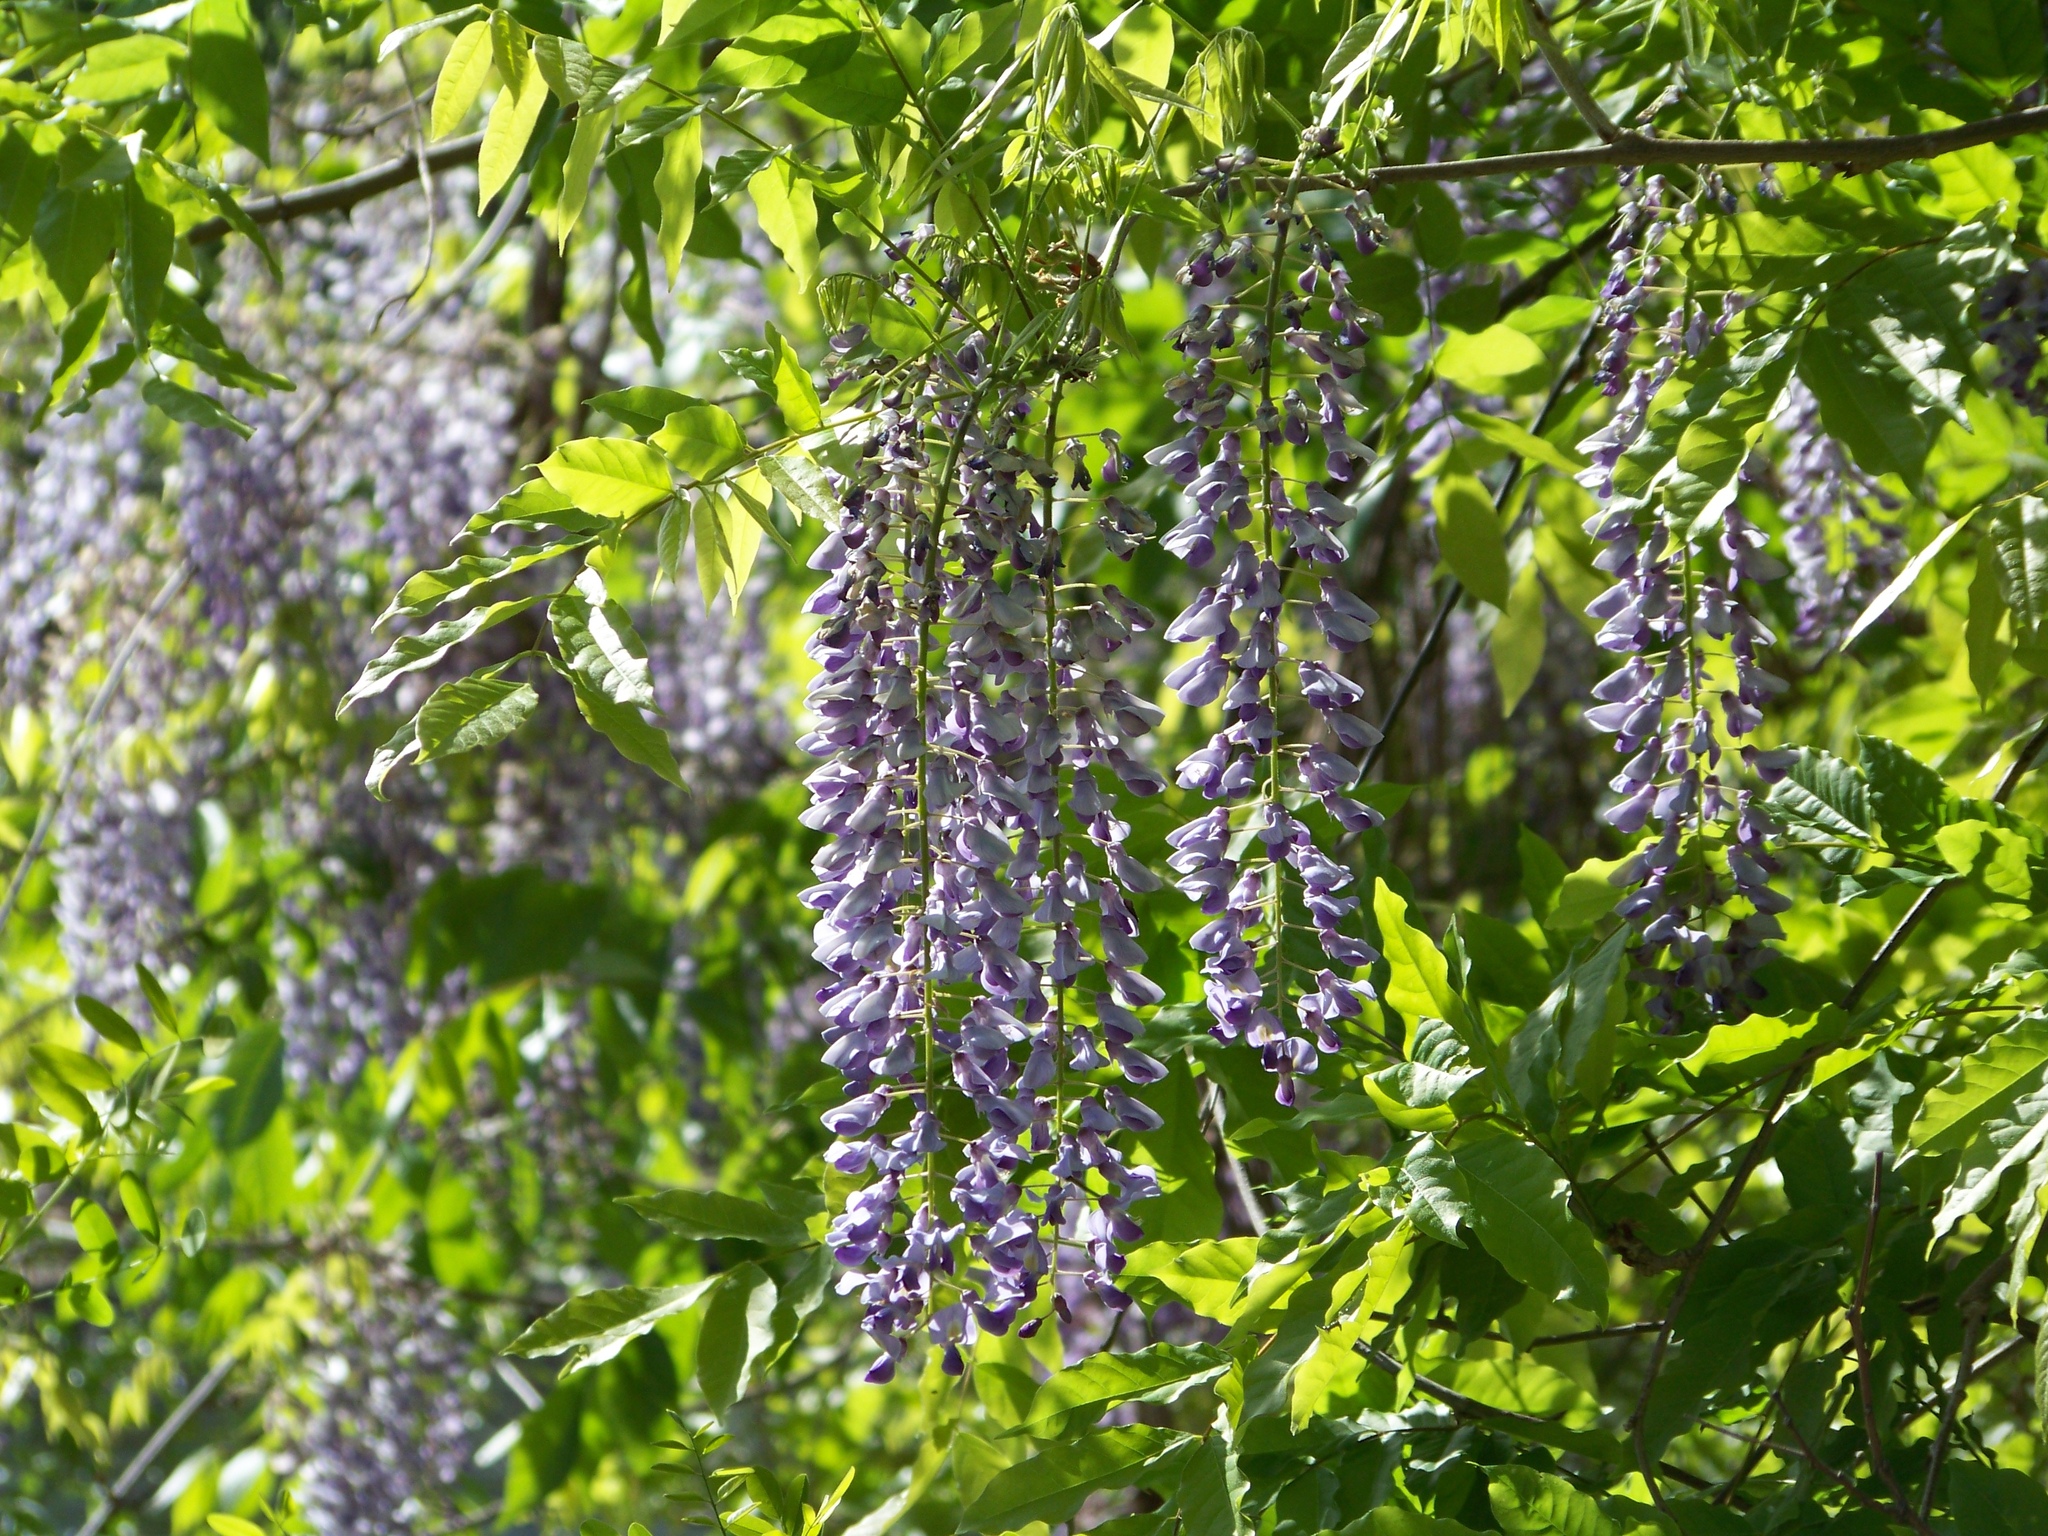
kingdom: Plantae
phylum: Tracheophyta
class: Magnoliopsida
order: Fabales
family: Fabaceae
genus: Wisteria
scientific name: Wisteria floribunda
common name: Japanese wisteria
